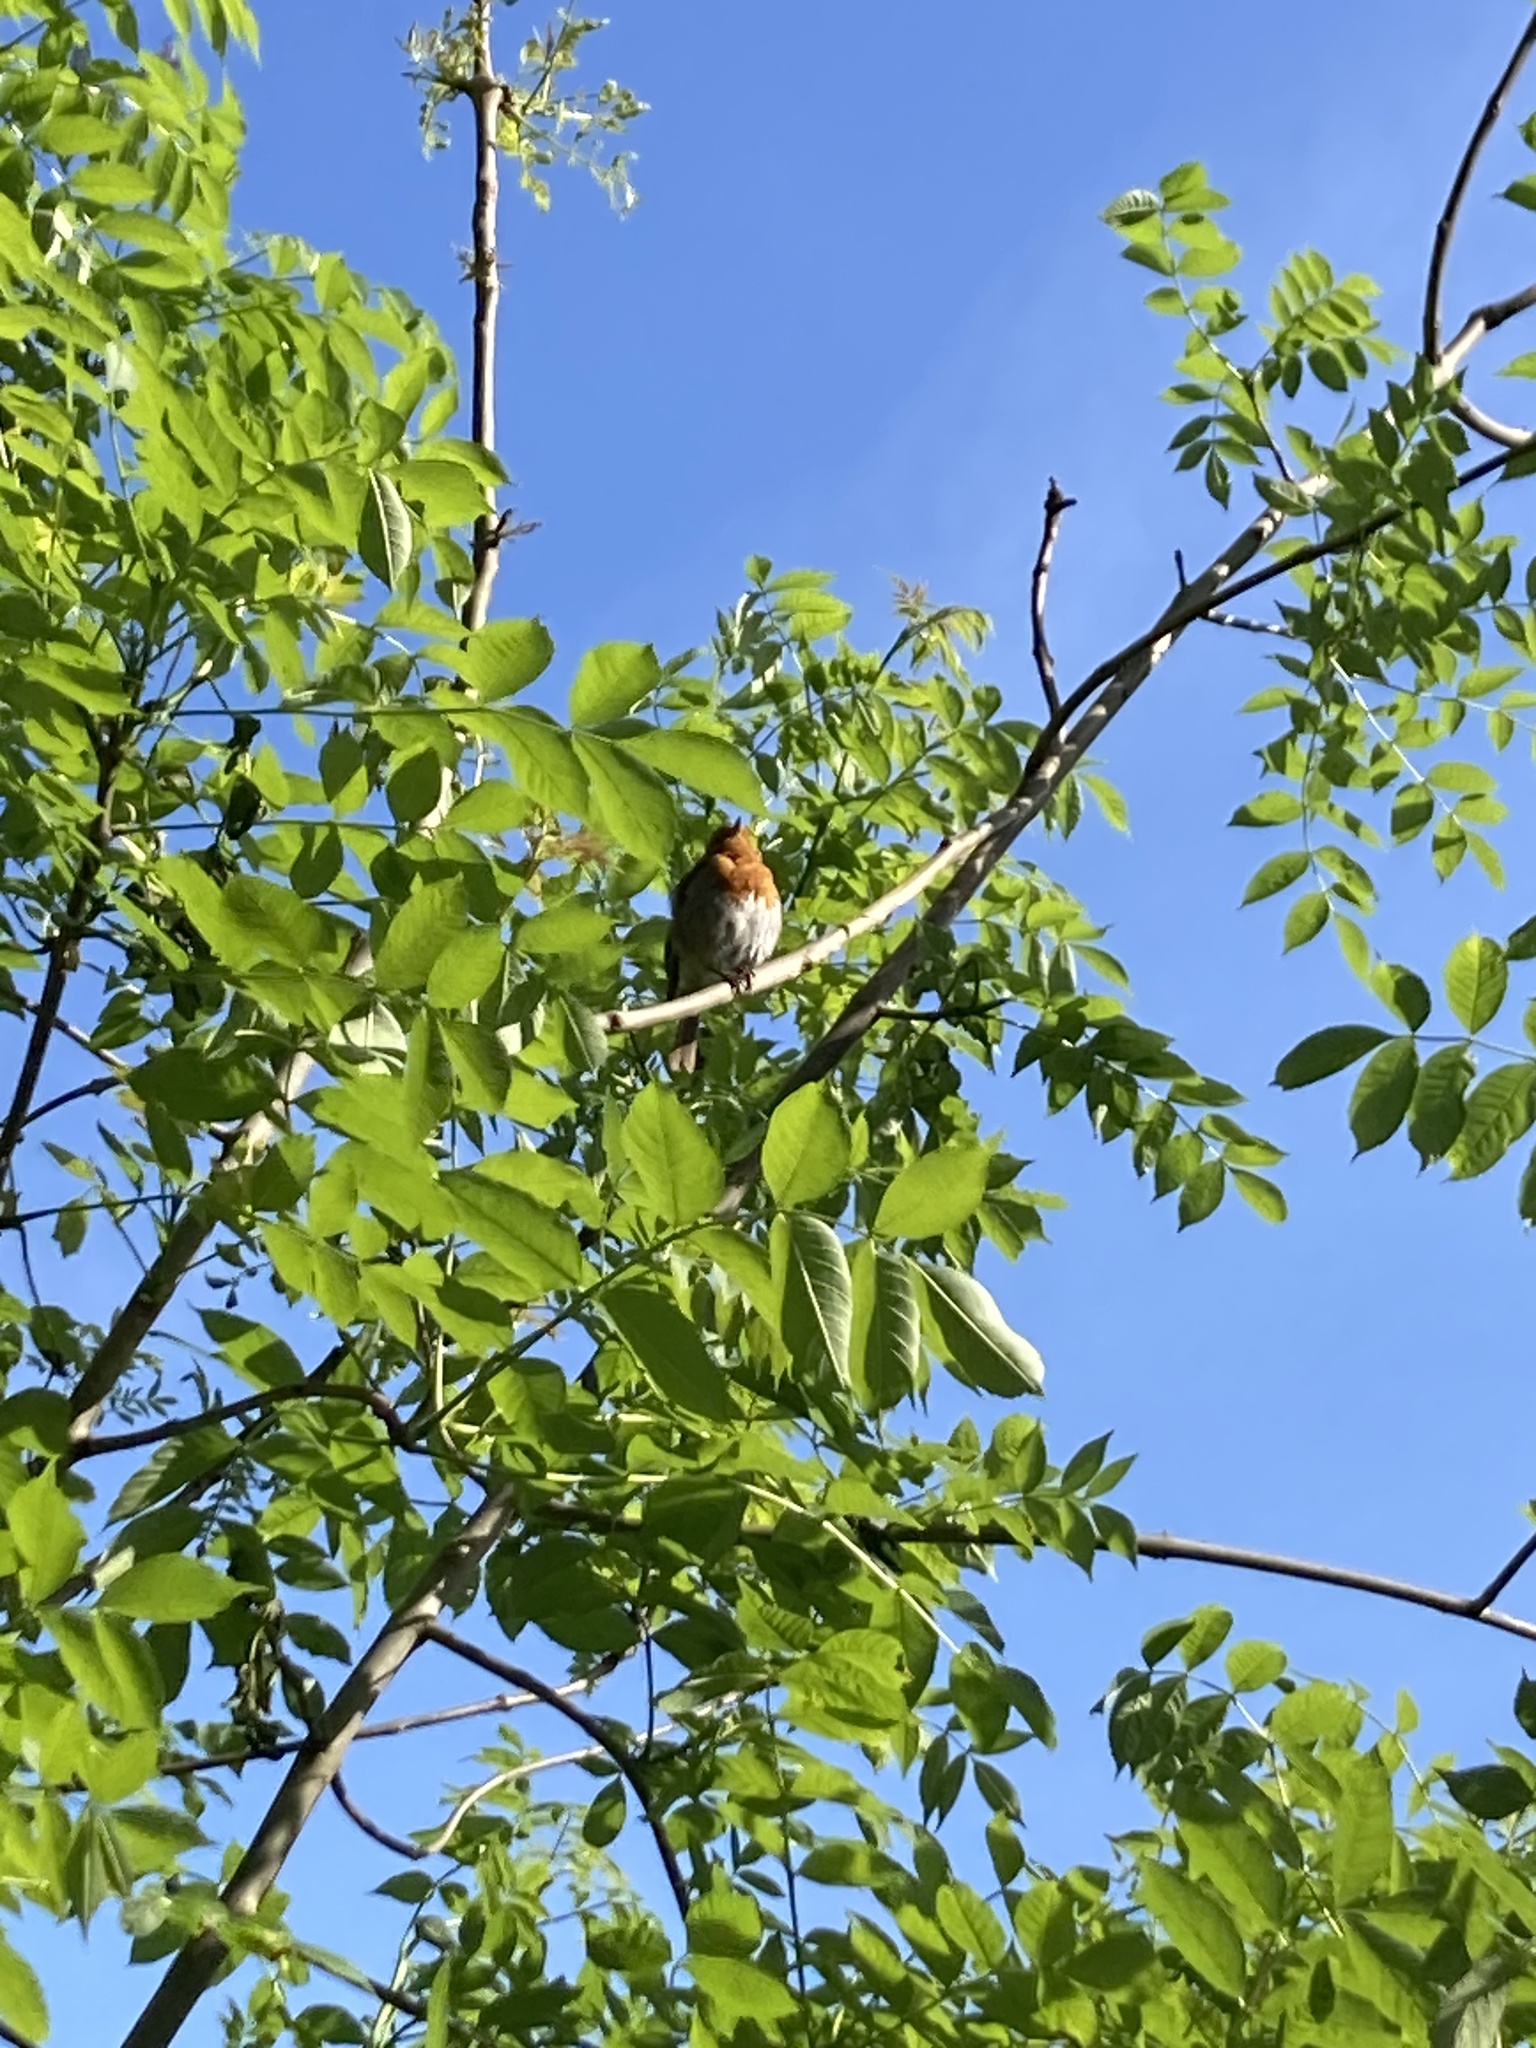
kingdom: Animalia
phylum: Chordata
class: Aves
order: Passeriformes
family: Muscicapidae
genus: Erithacus
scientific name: Erithacus rubecula
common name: European robin
